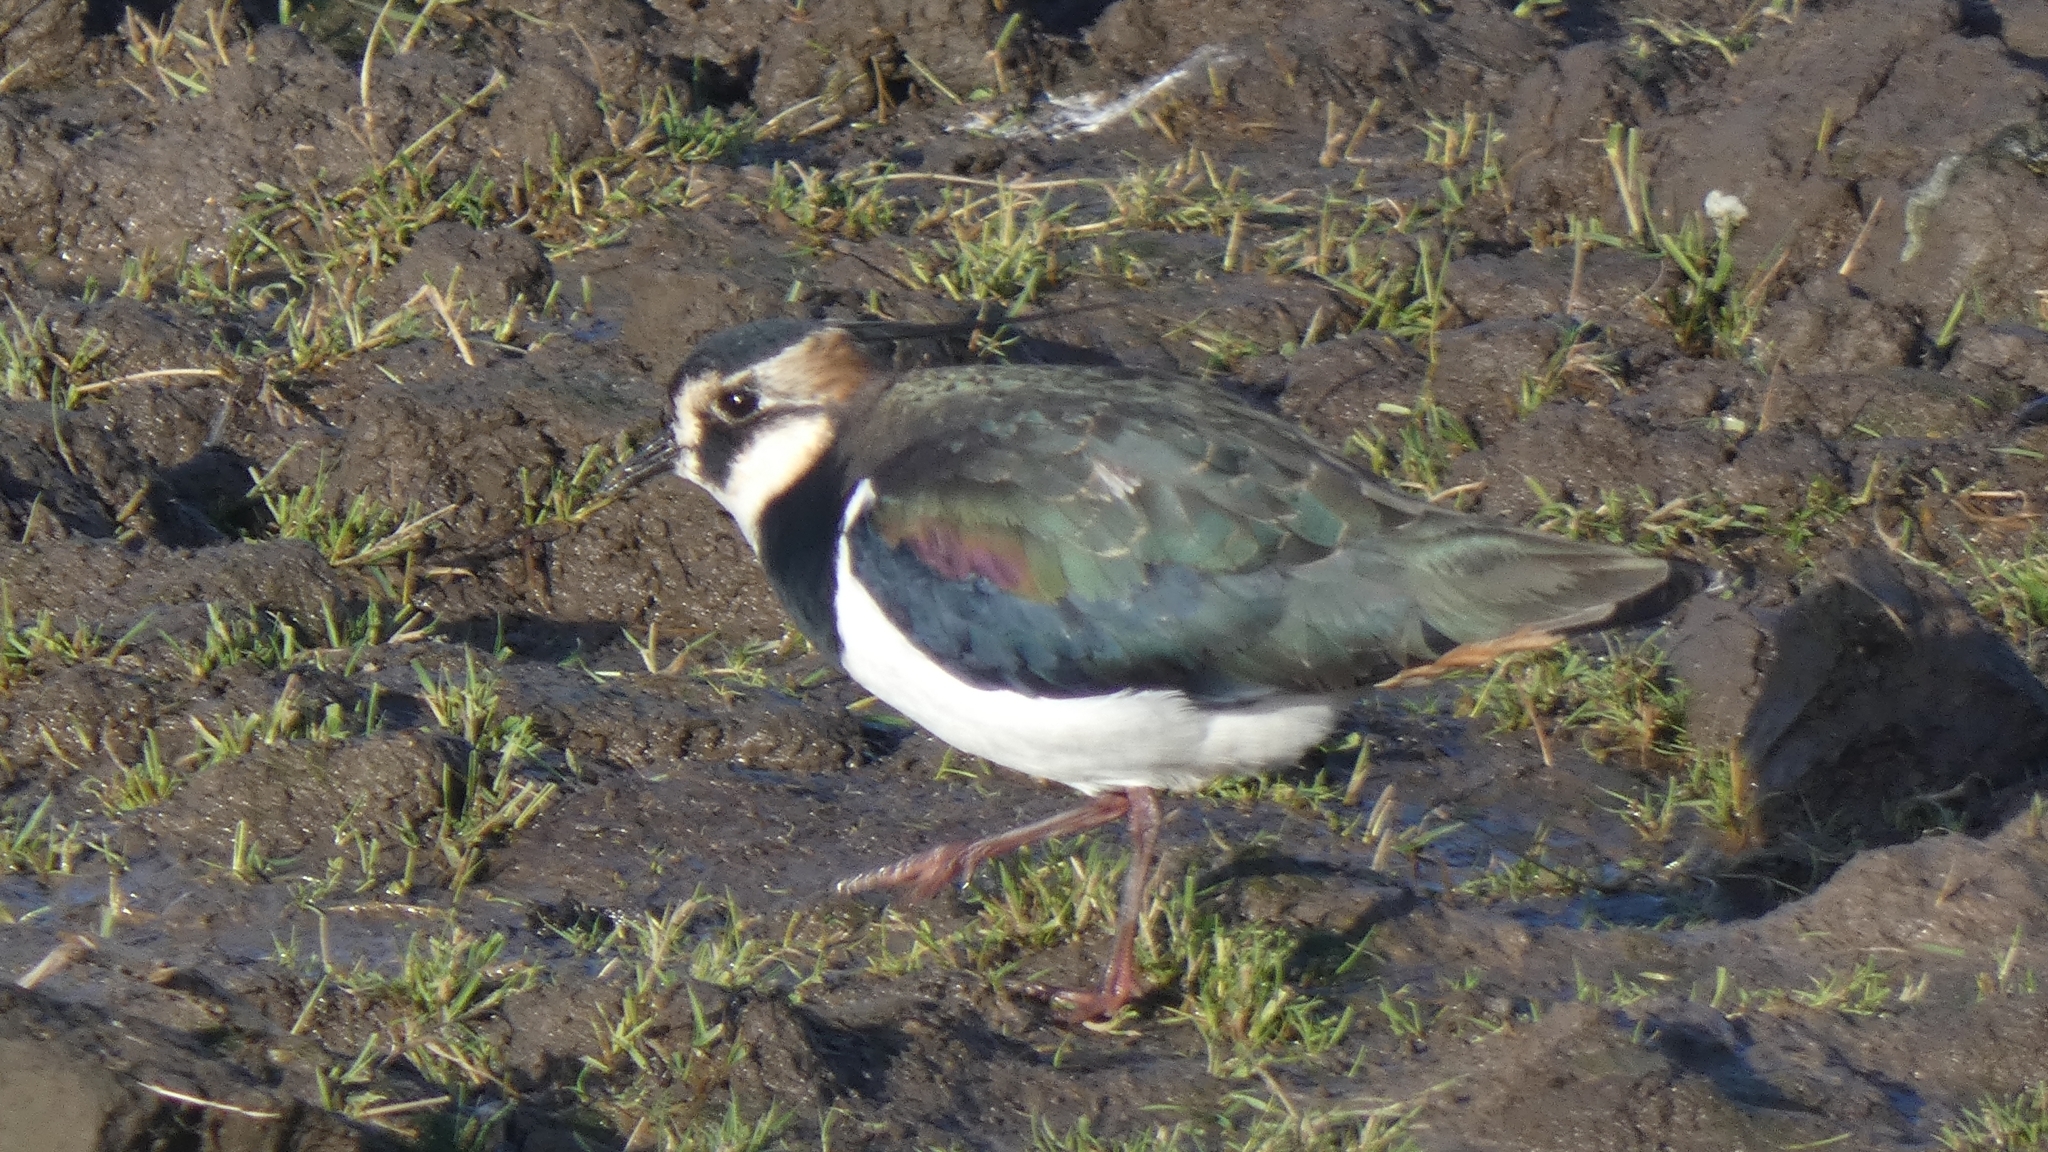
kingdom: Animalia
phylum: Chordata
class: Aves
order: Charadriiformes
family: Charadriidae
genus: Vanellus
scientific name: Vanellus vanellus
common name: Northern lapwing
